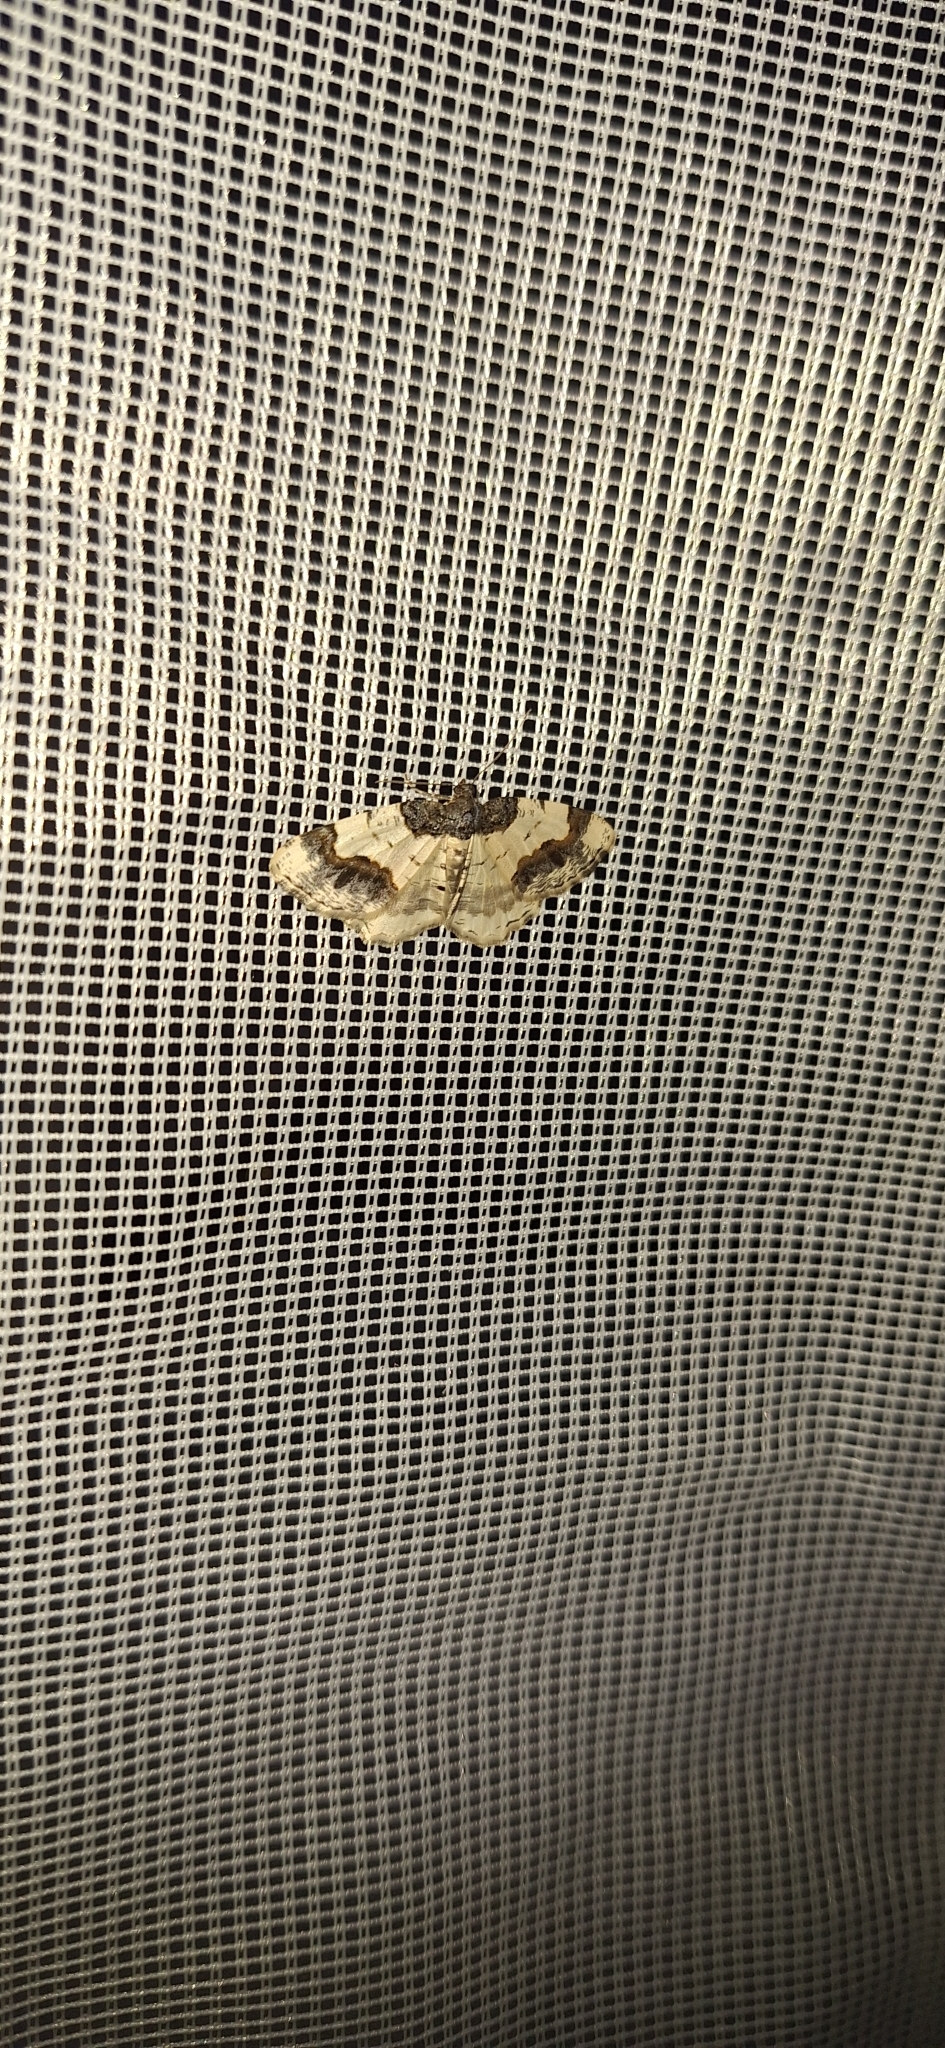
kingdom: Animalia
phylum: Arthropoda
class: Insecta
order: Lepidoptera
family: Geometridae
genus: Ligdia
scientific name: Ligdia adustata
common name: Scorched carpet
